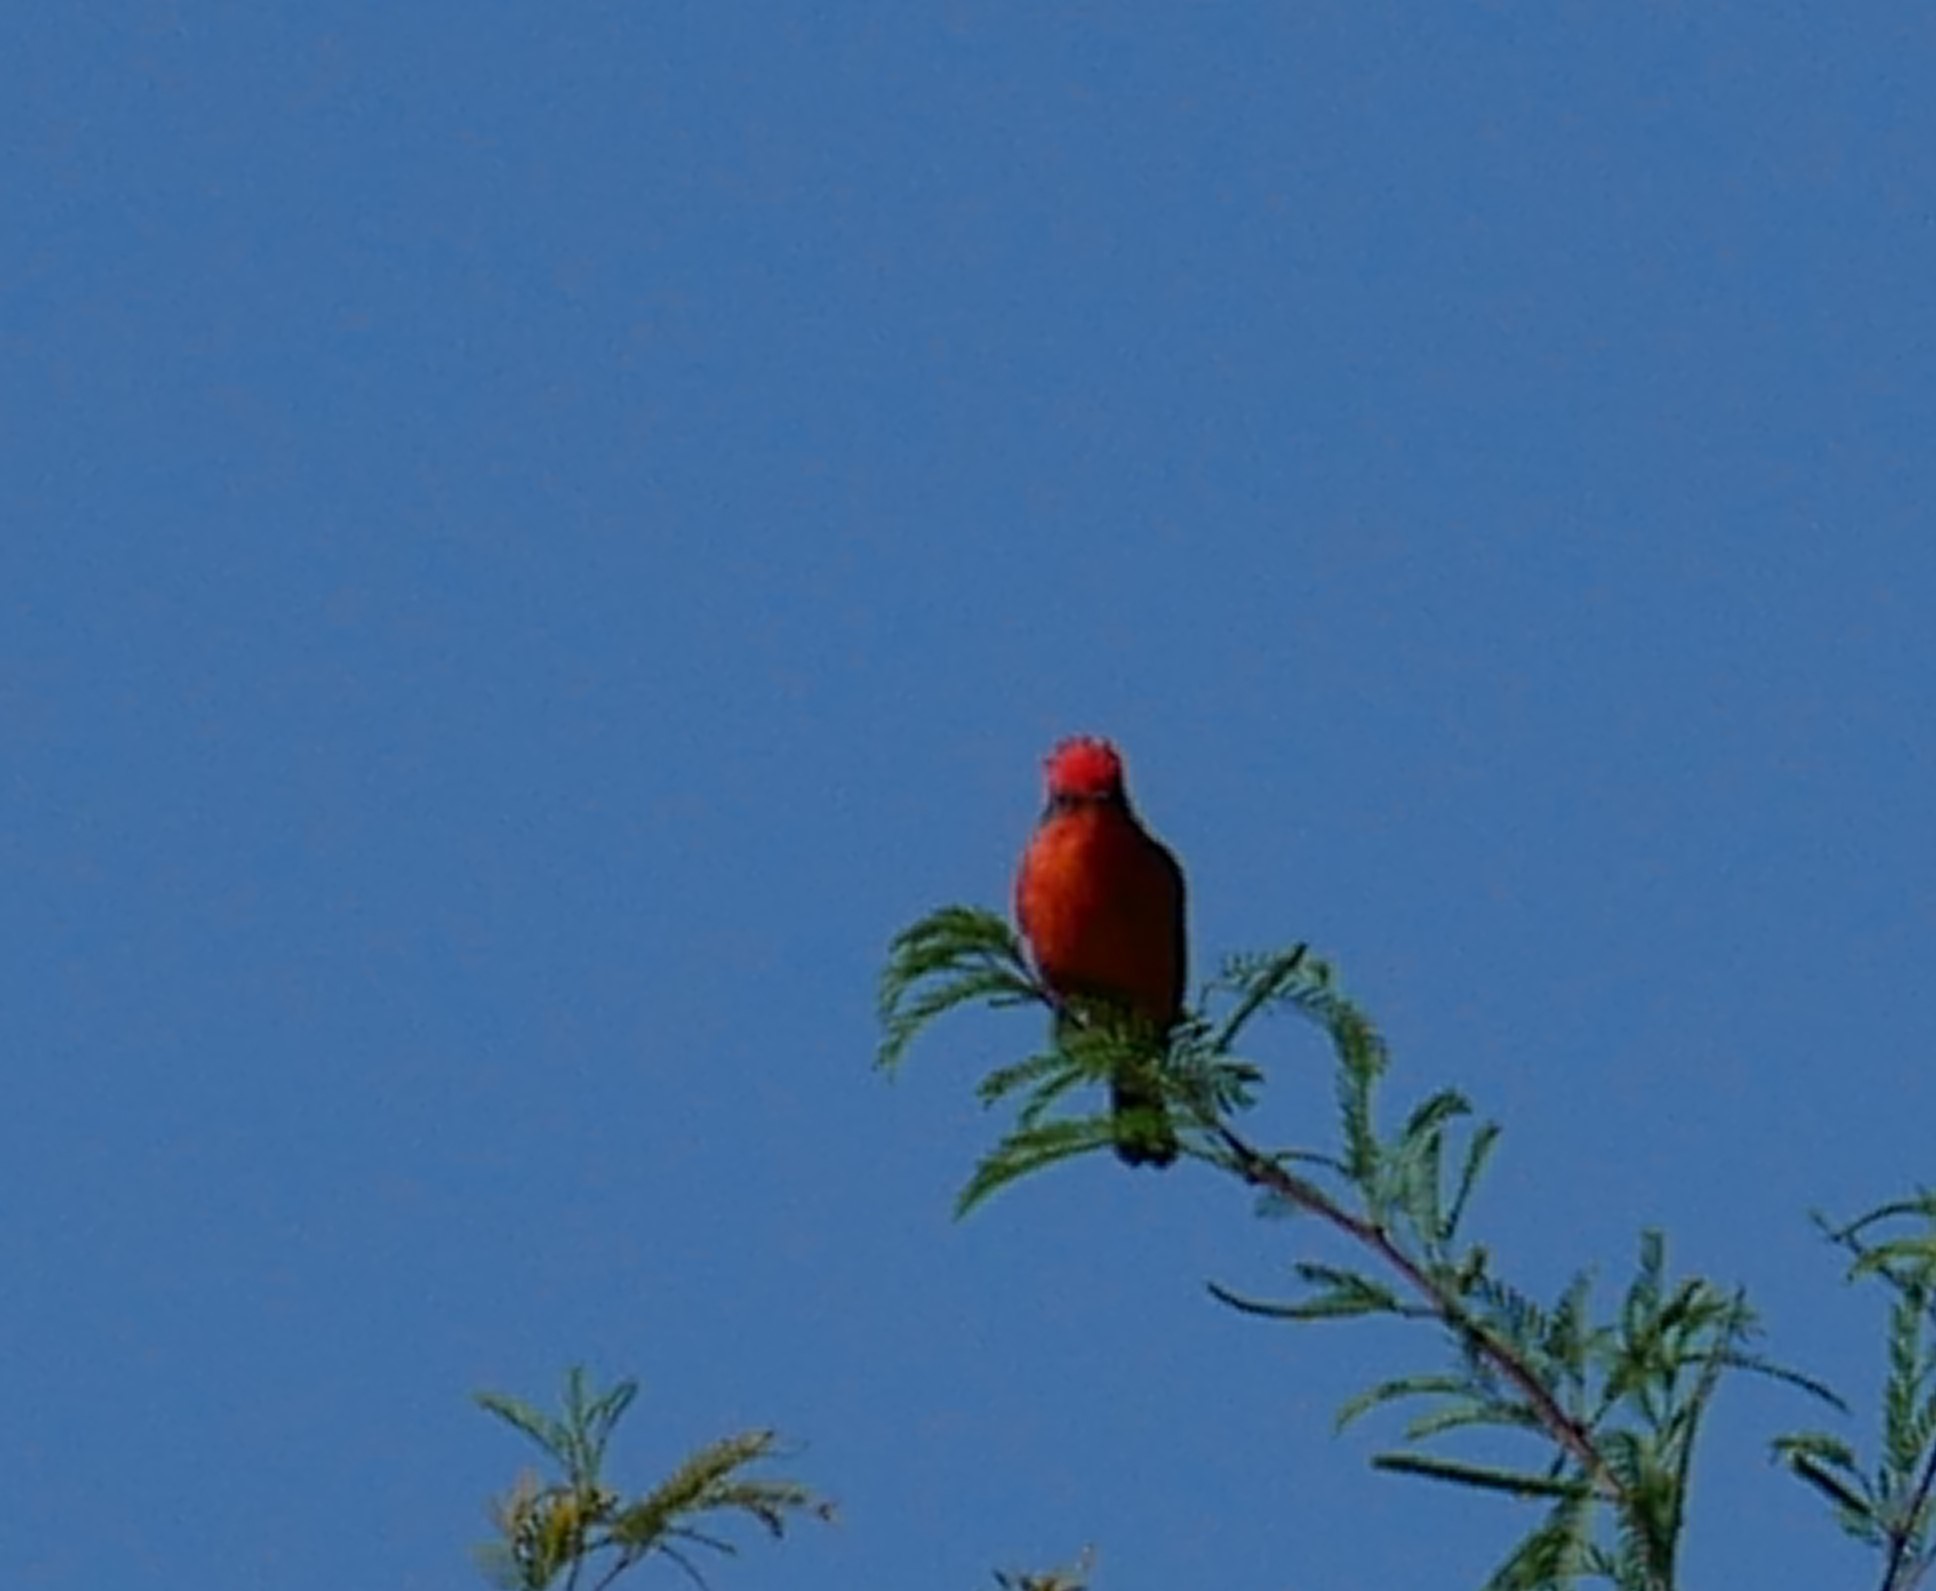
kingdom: Animalia
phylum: Chordata
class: Aves
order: Passeriformes
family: Tyrannidae
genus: Pyrocephalus
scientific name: Pyrocephalus rubinus
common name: Vermilion flycatcher
